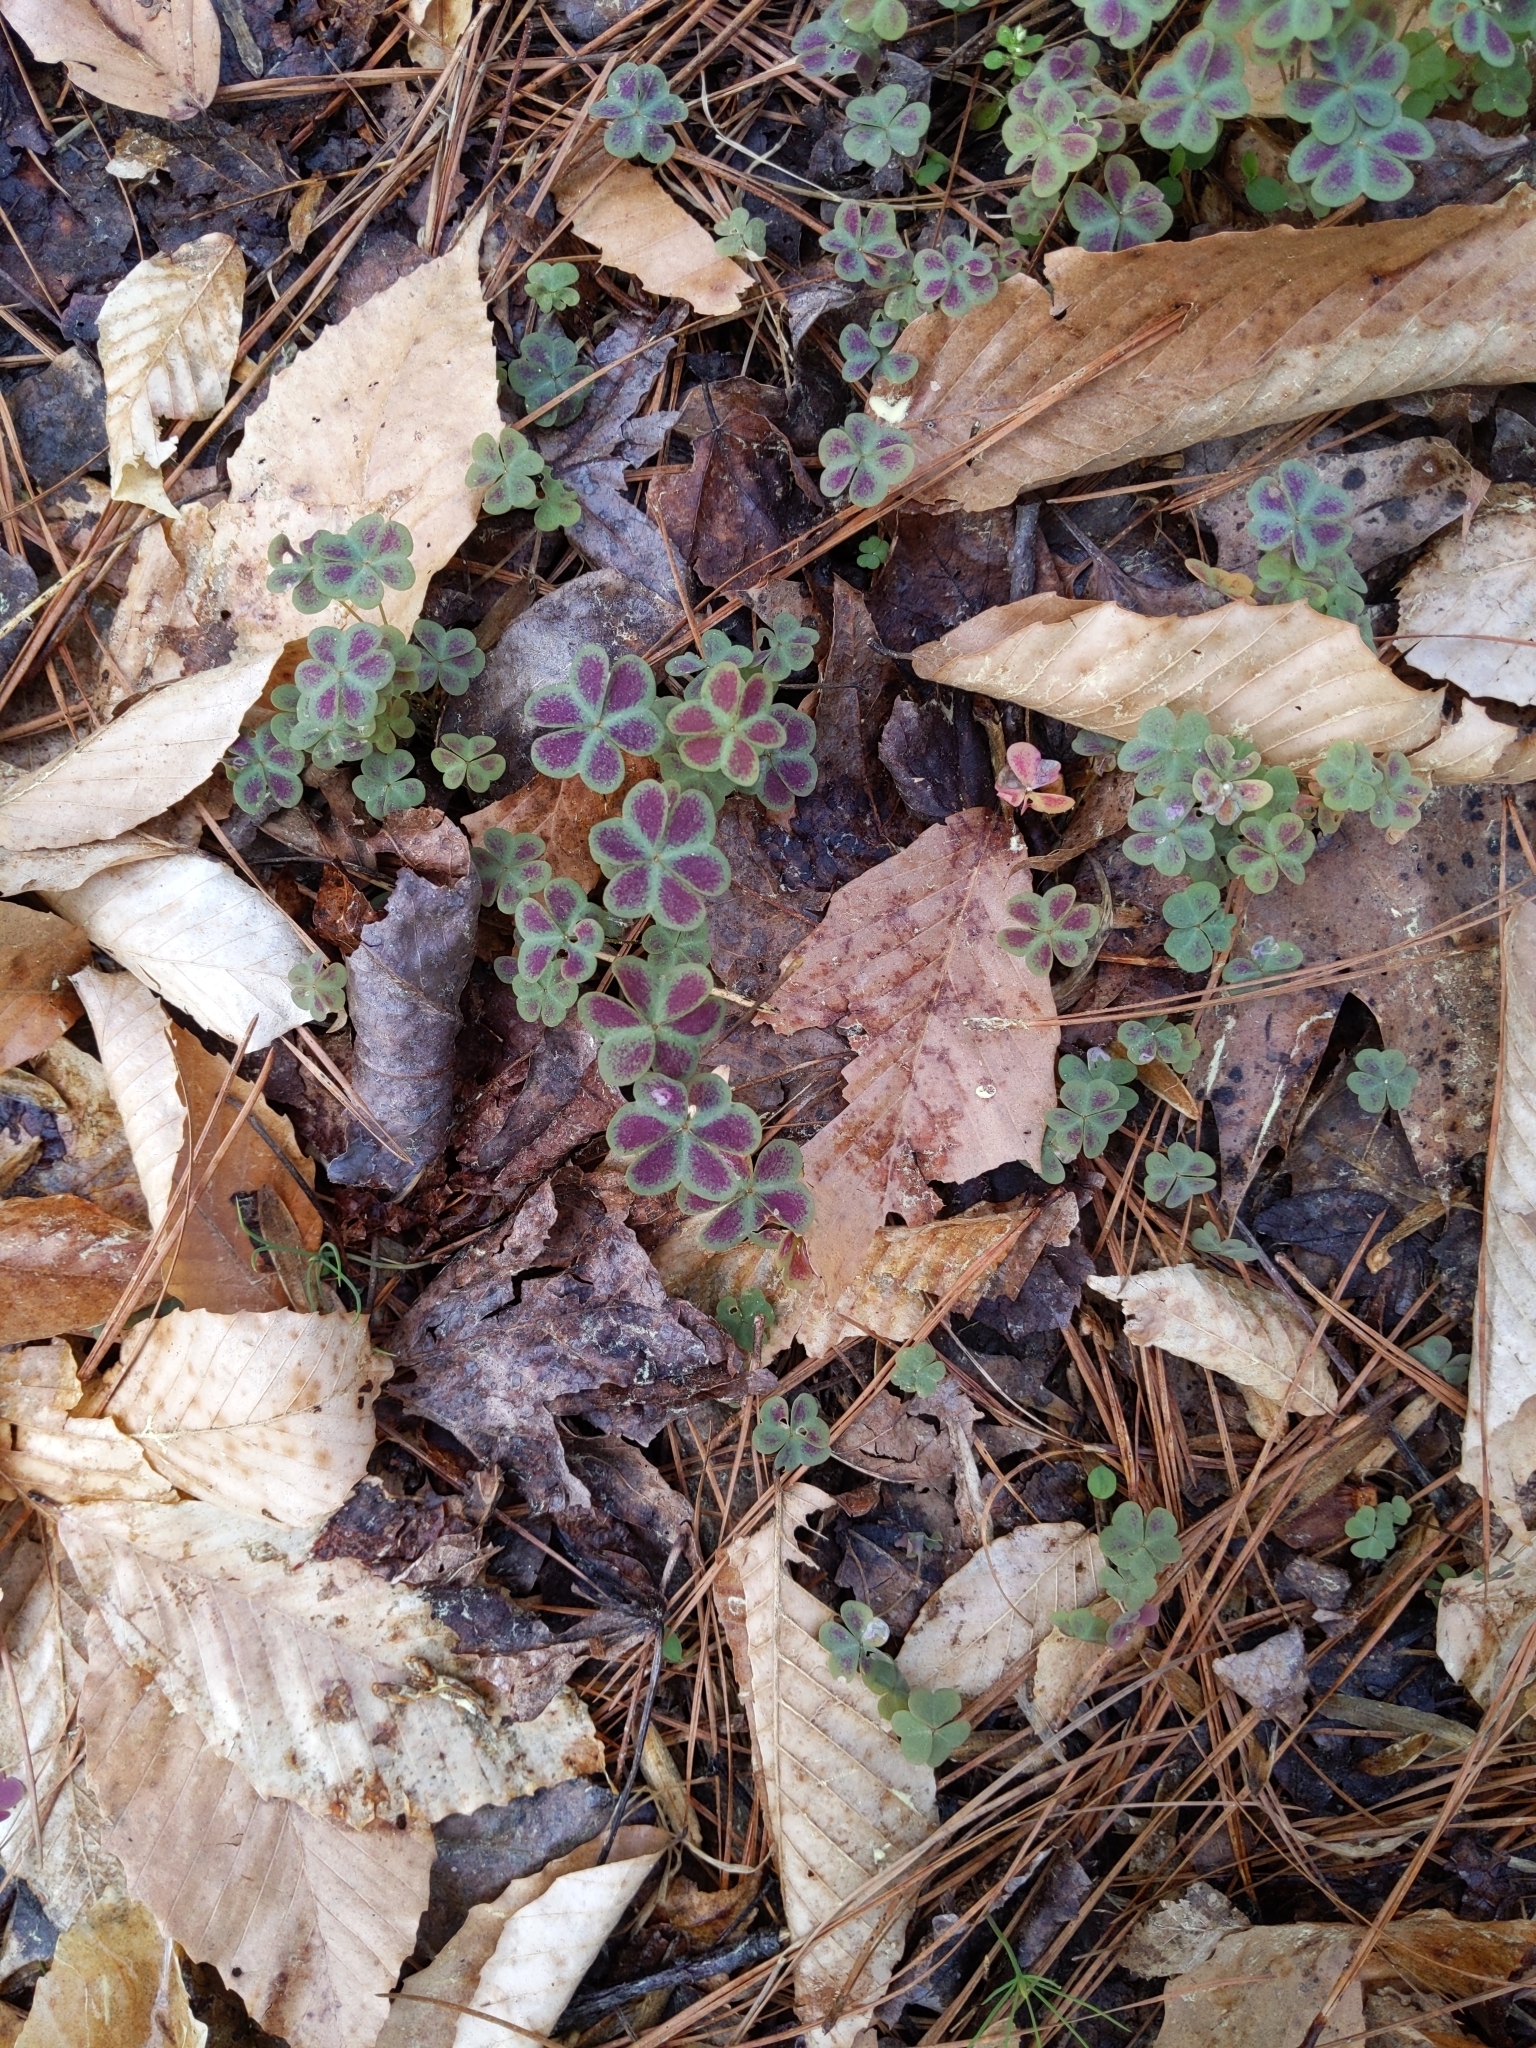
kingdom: Plantae
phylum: Tracheophyta
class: Magnoliopsida
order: Oxalidales
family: Oxalidaceae
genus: Oxalis
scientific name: Oxalis violacea
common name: Violet wood-sorrel
